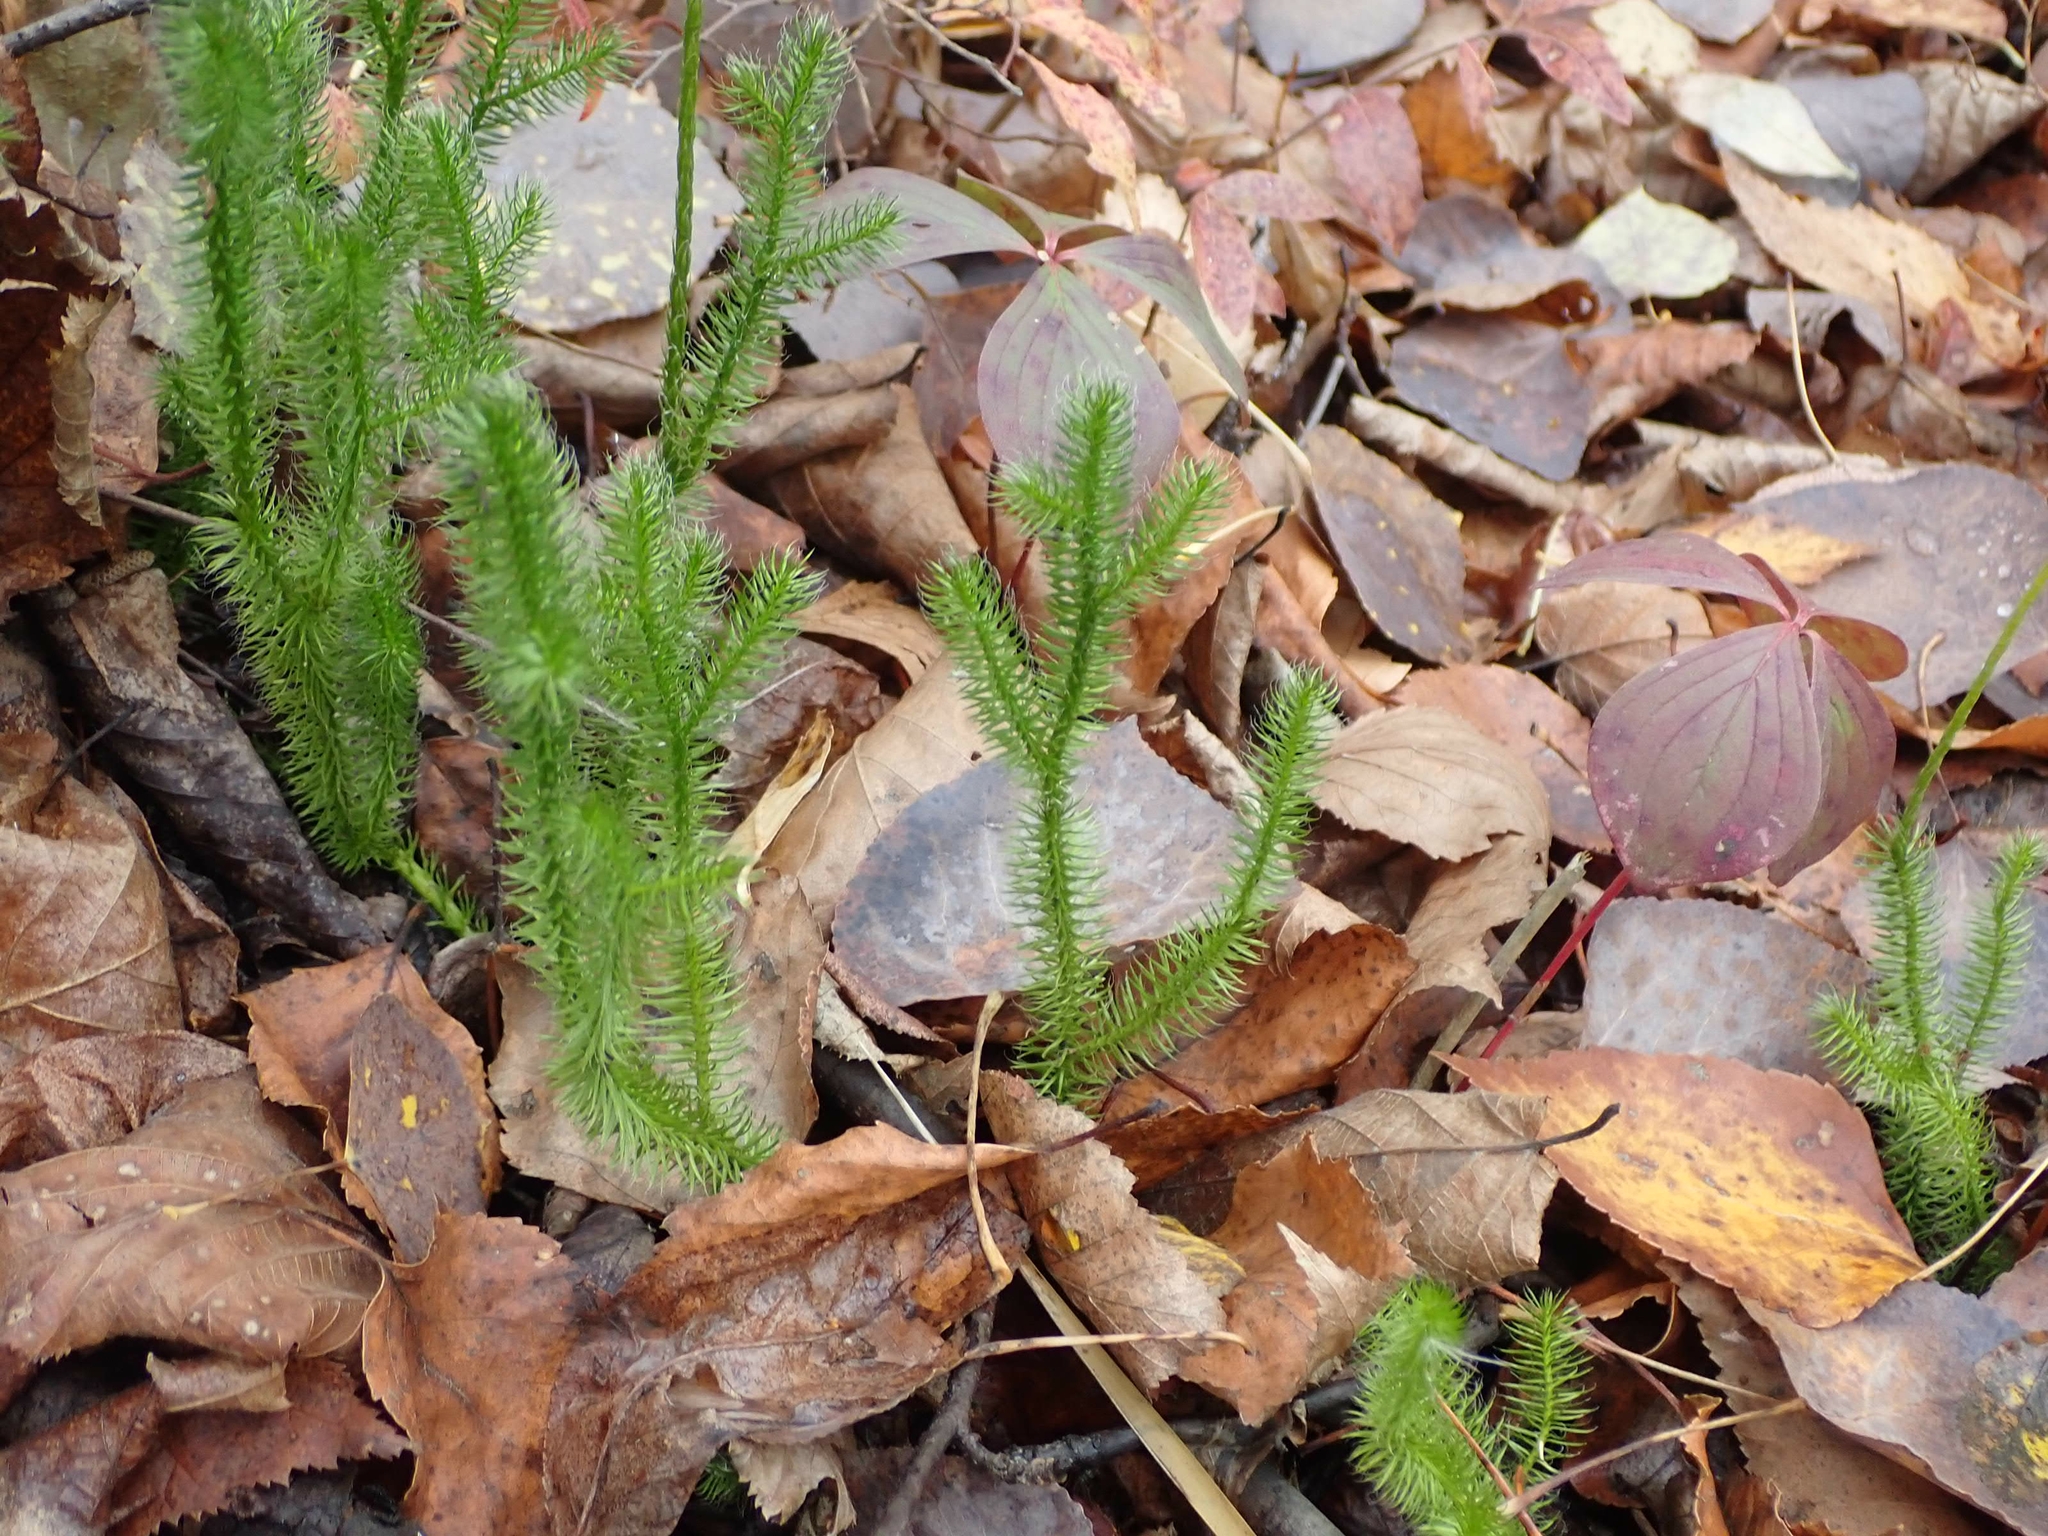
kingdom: Plantae
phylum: Tracheophyta
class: Lycopodiopsida
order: Lycopodiales
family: Lycopodiaceae
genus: Lycopodium
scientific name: Lycopodium clavatum
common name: Stag's-horn clubmoss
